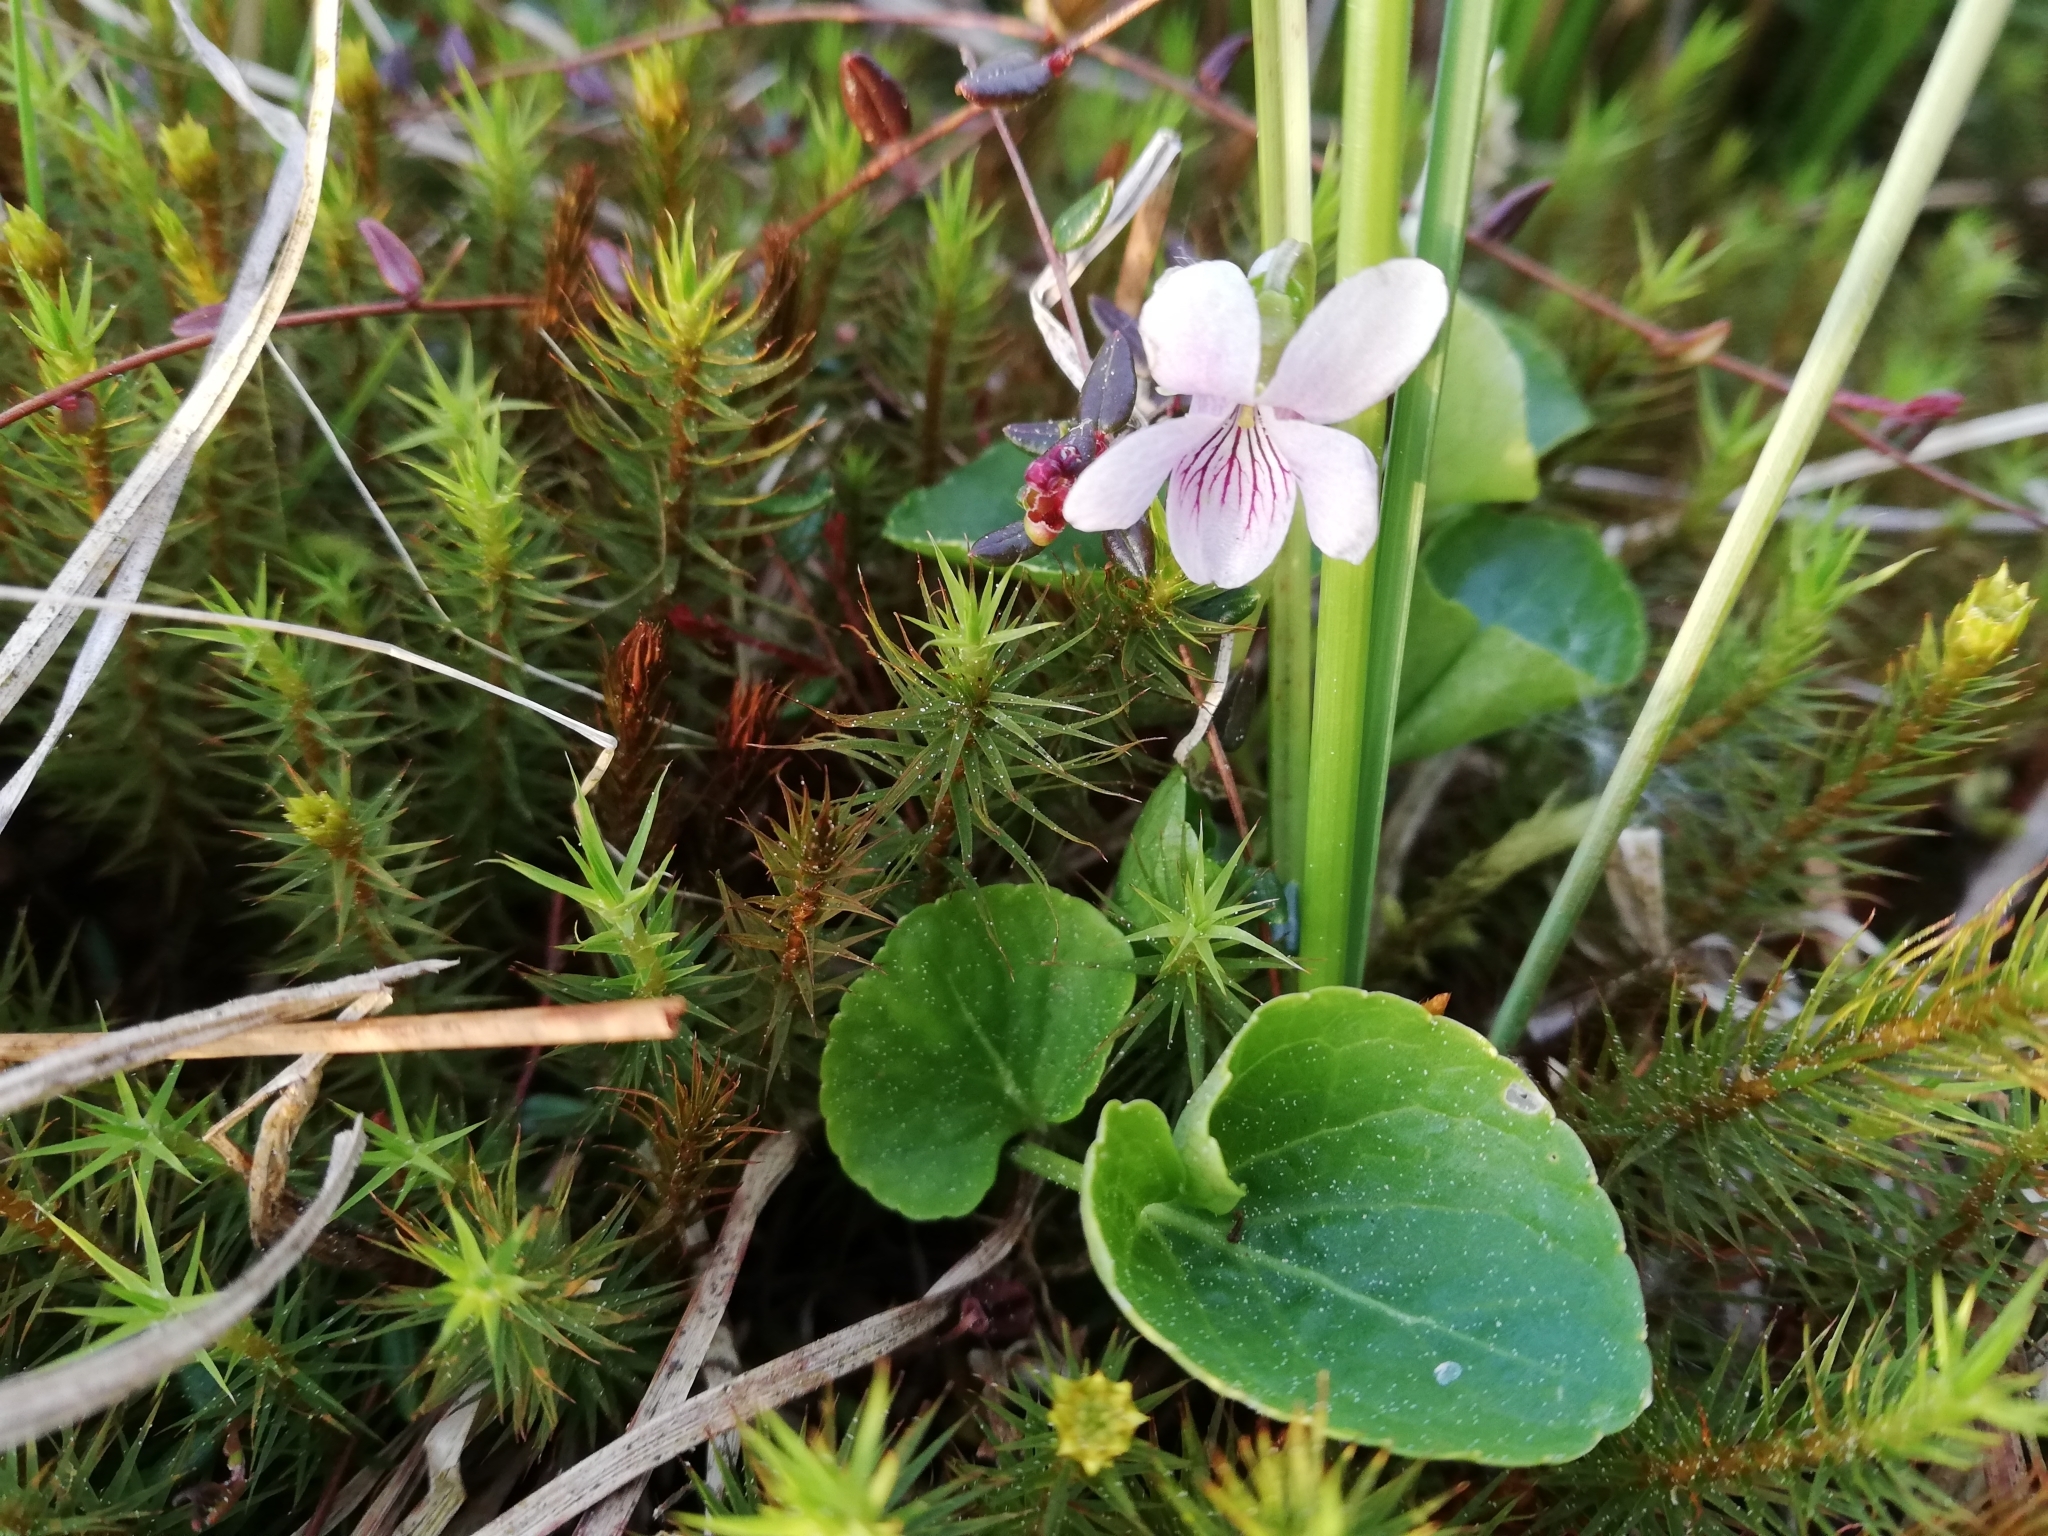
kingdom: Plantae
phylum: Tracheophyta
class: Magnoliopsida
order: Malpighiales
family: Violaceae
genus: Viola
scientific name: Viola palustris
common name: Marsh violet
